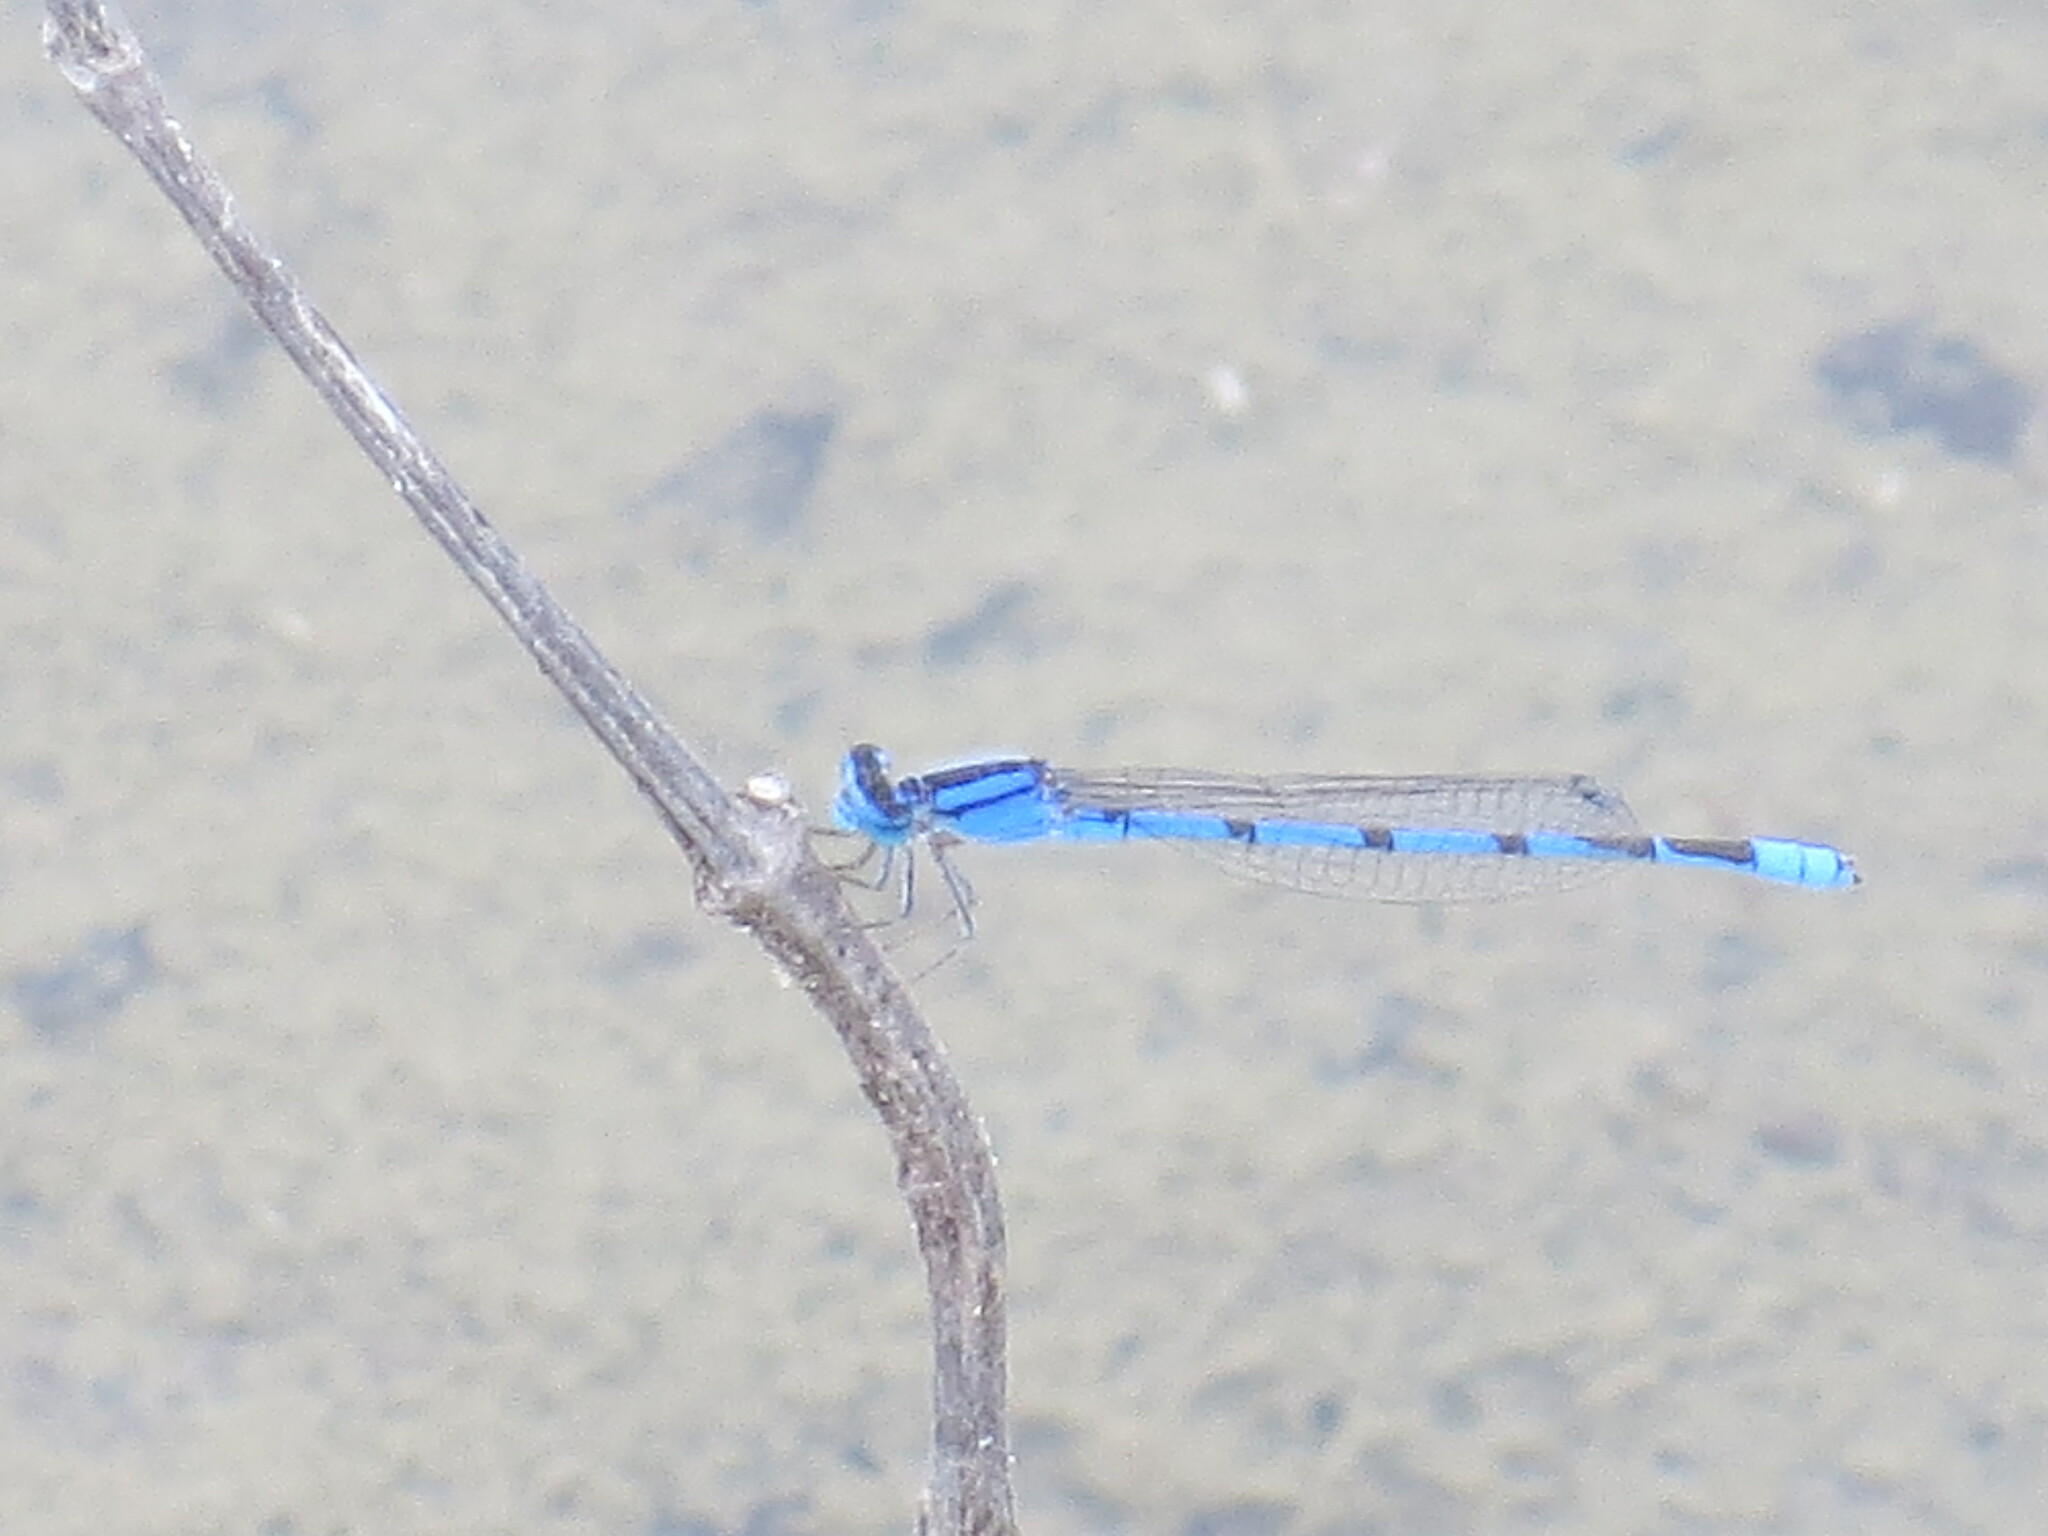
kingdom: Animalia
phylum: Arthropoda
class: Insecta
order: Odonata
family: Coenagrionidae
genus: Enallagma
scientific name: Enallagma civile
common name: Damselfly
